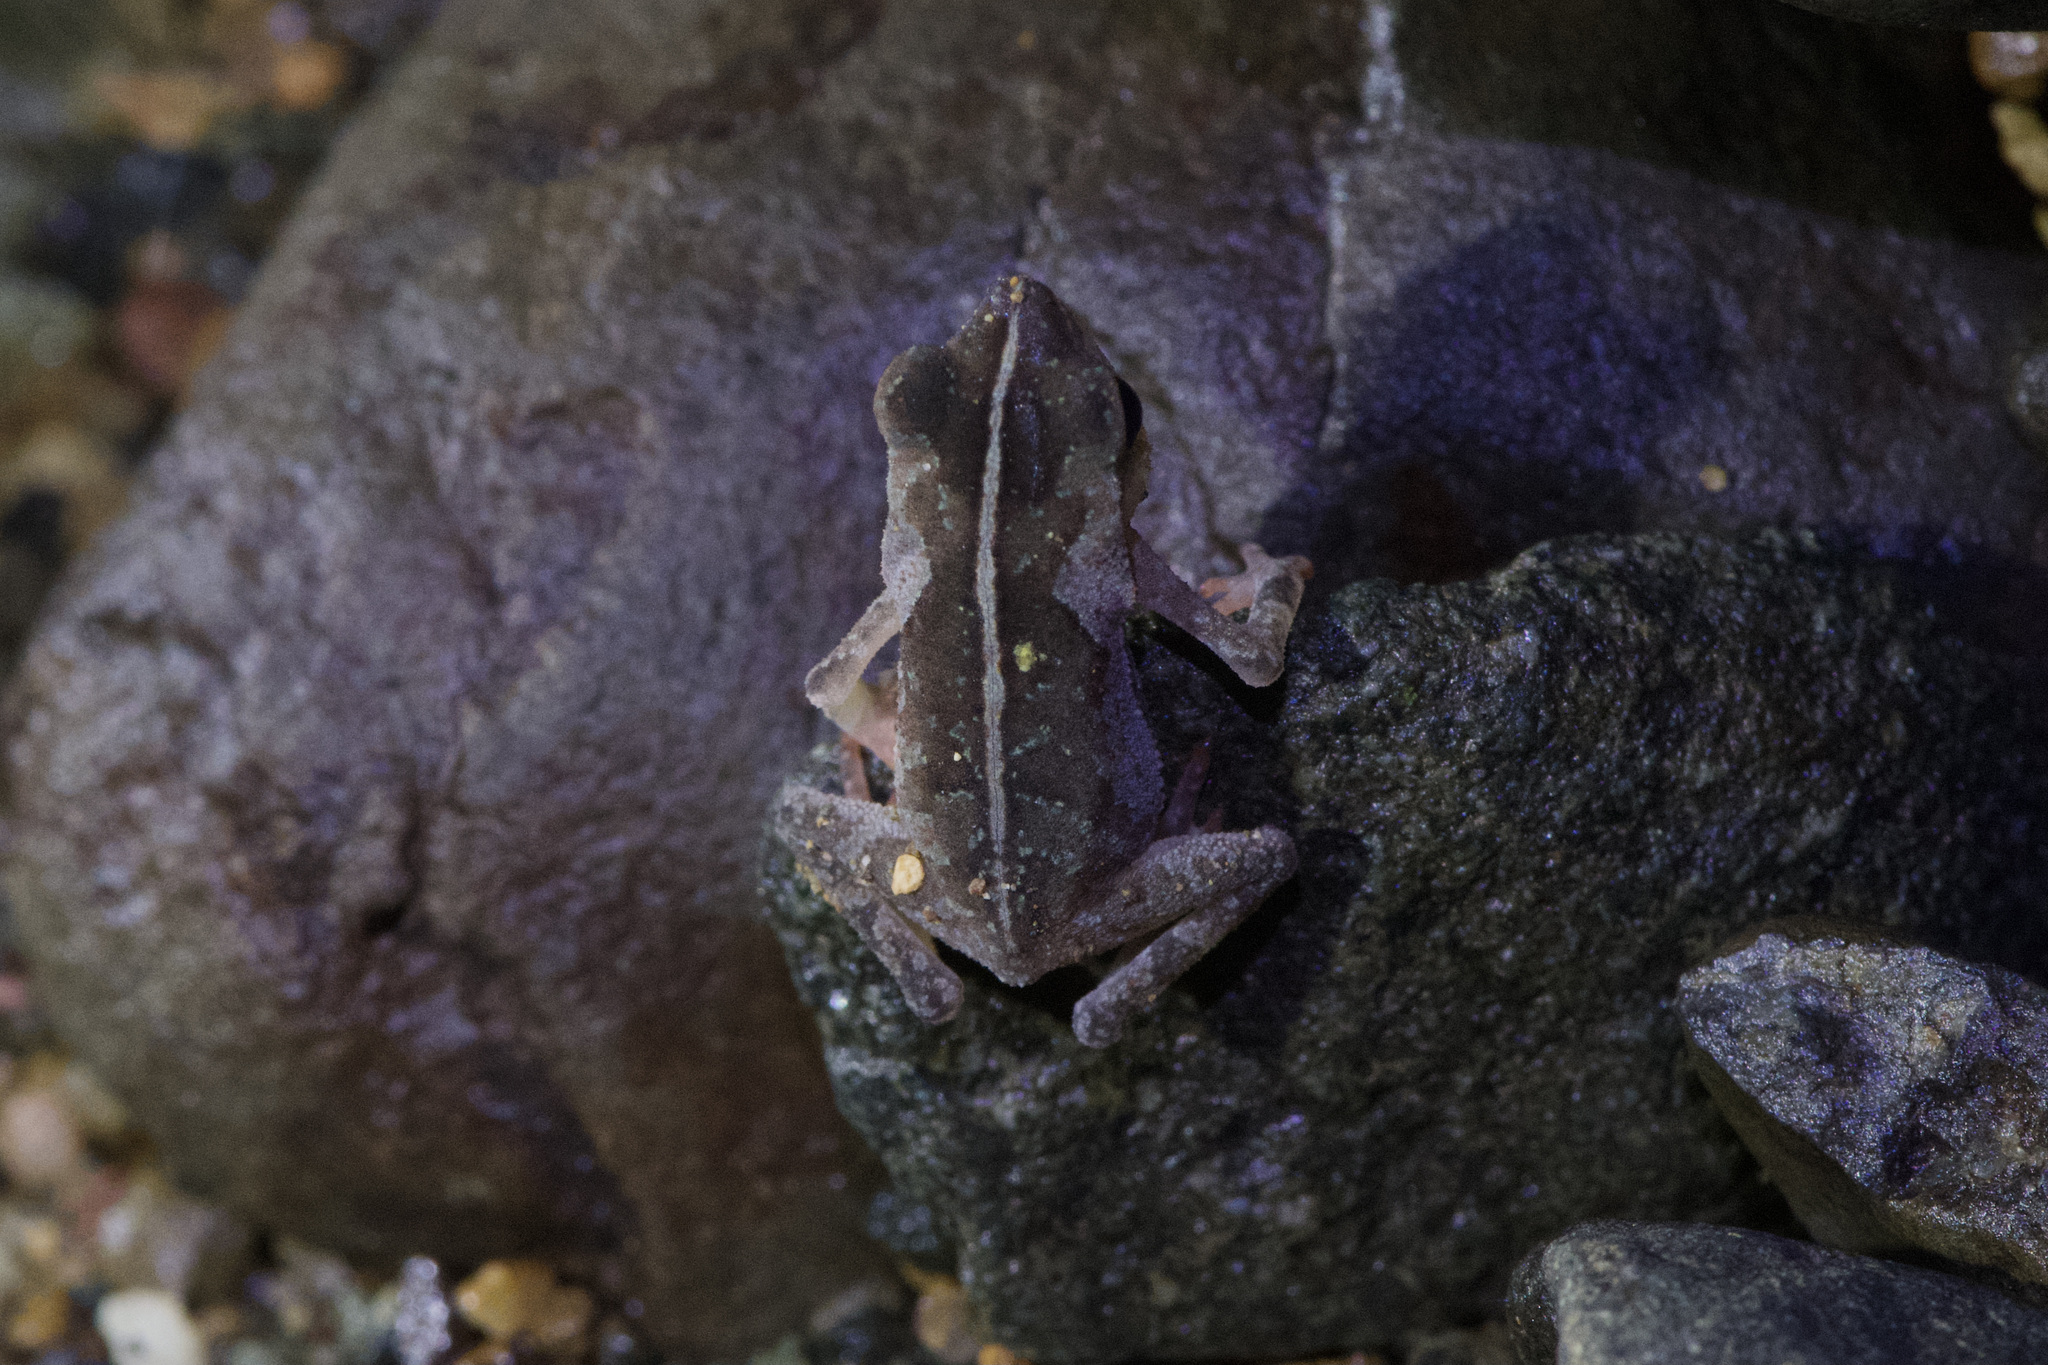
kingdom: Animalia
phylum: Chordata
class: Amphibia
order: Anura
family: Bufonidae
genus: Rhinella
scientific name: Rhinella alata
